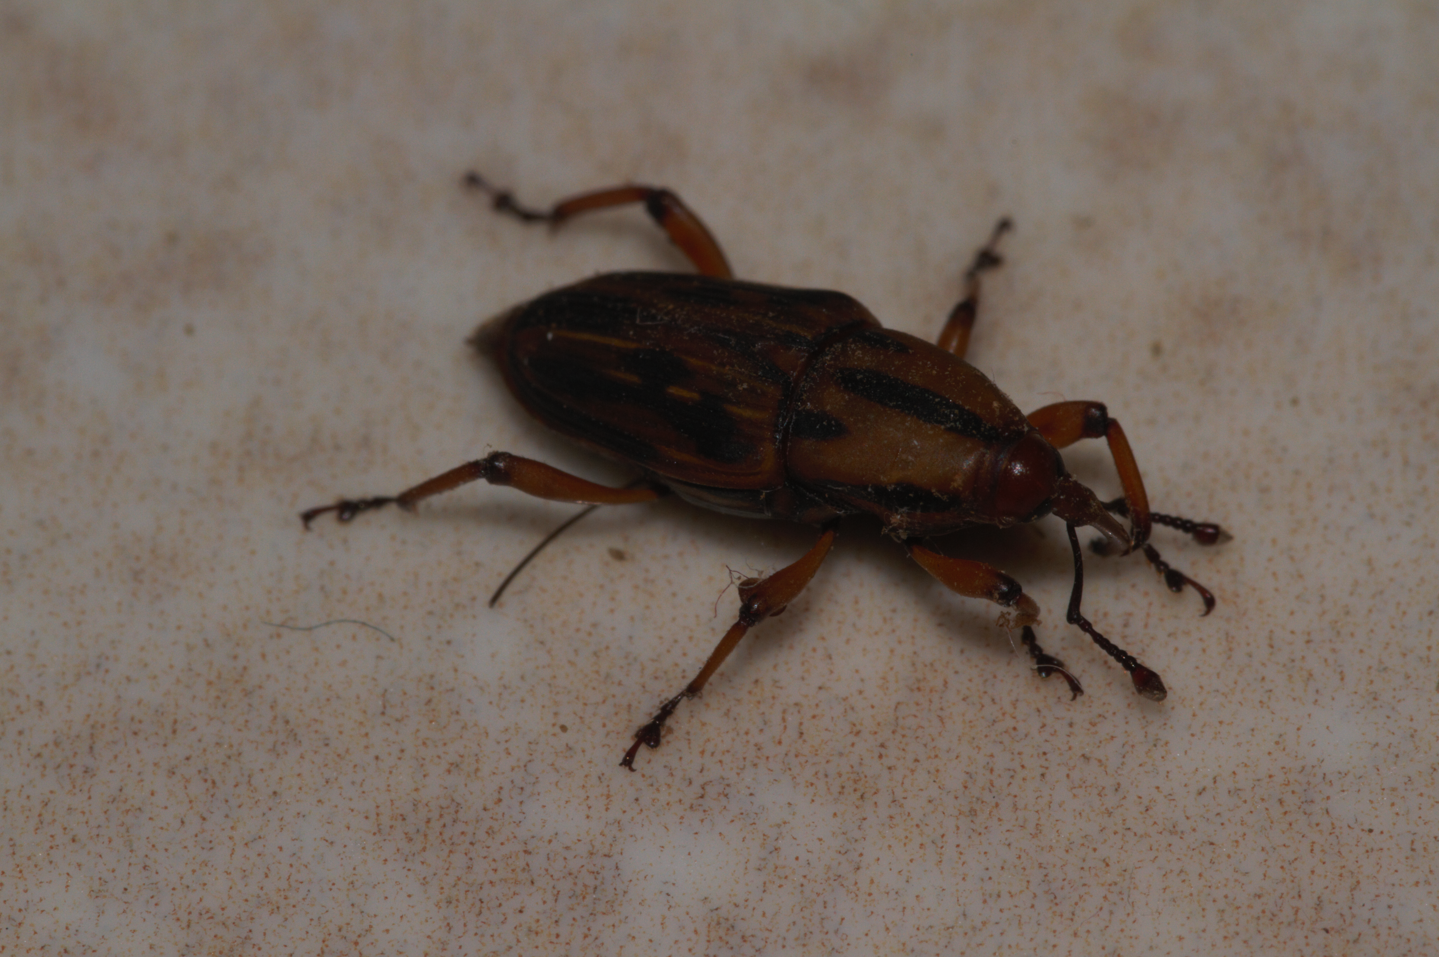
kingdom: Animalia
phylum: Arthropoda
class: Insecta
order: Coleoptera
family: Dryophthoridae
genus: Metamasius
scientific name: Metamasius hemipterus
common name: Weevil
